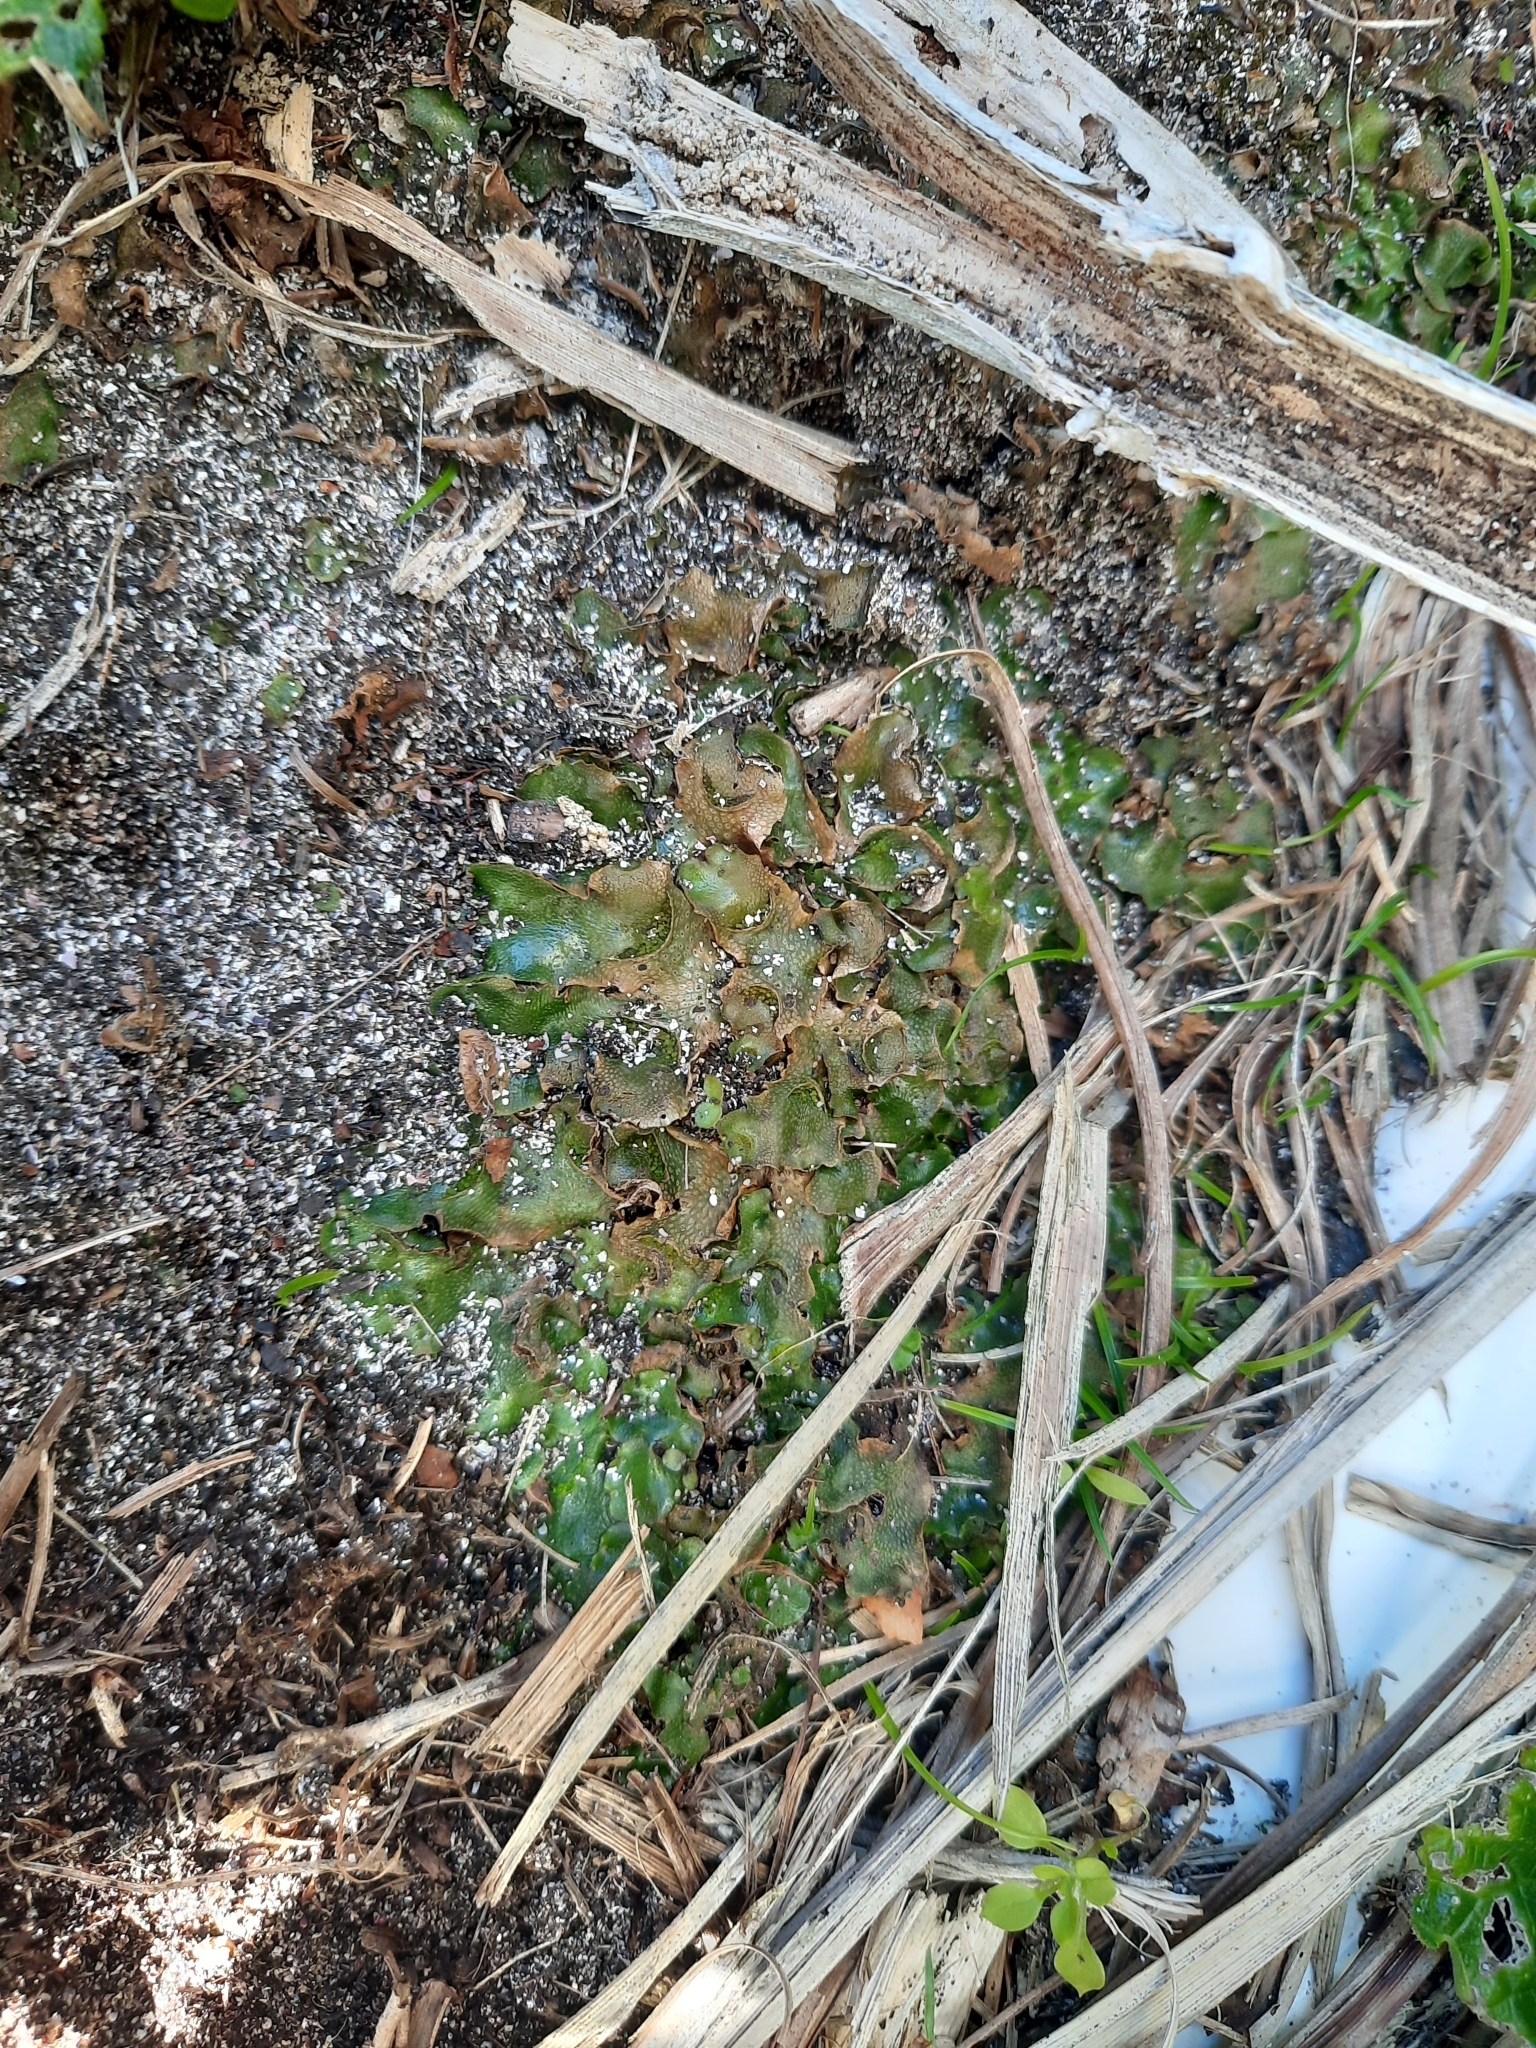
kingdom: Plantae
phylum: Marchantiophyta
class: Marchantiopsida
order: Lunulariales
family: Lunulariaceae
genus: Lunularia
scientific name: Lunularia cruciata
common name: Crescent-cup liverwort
